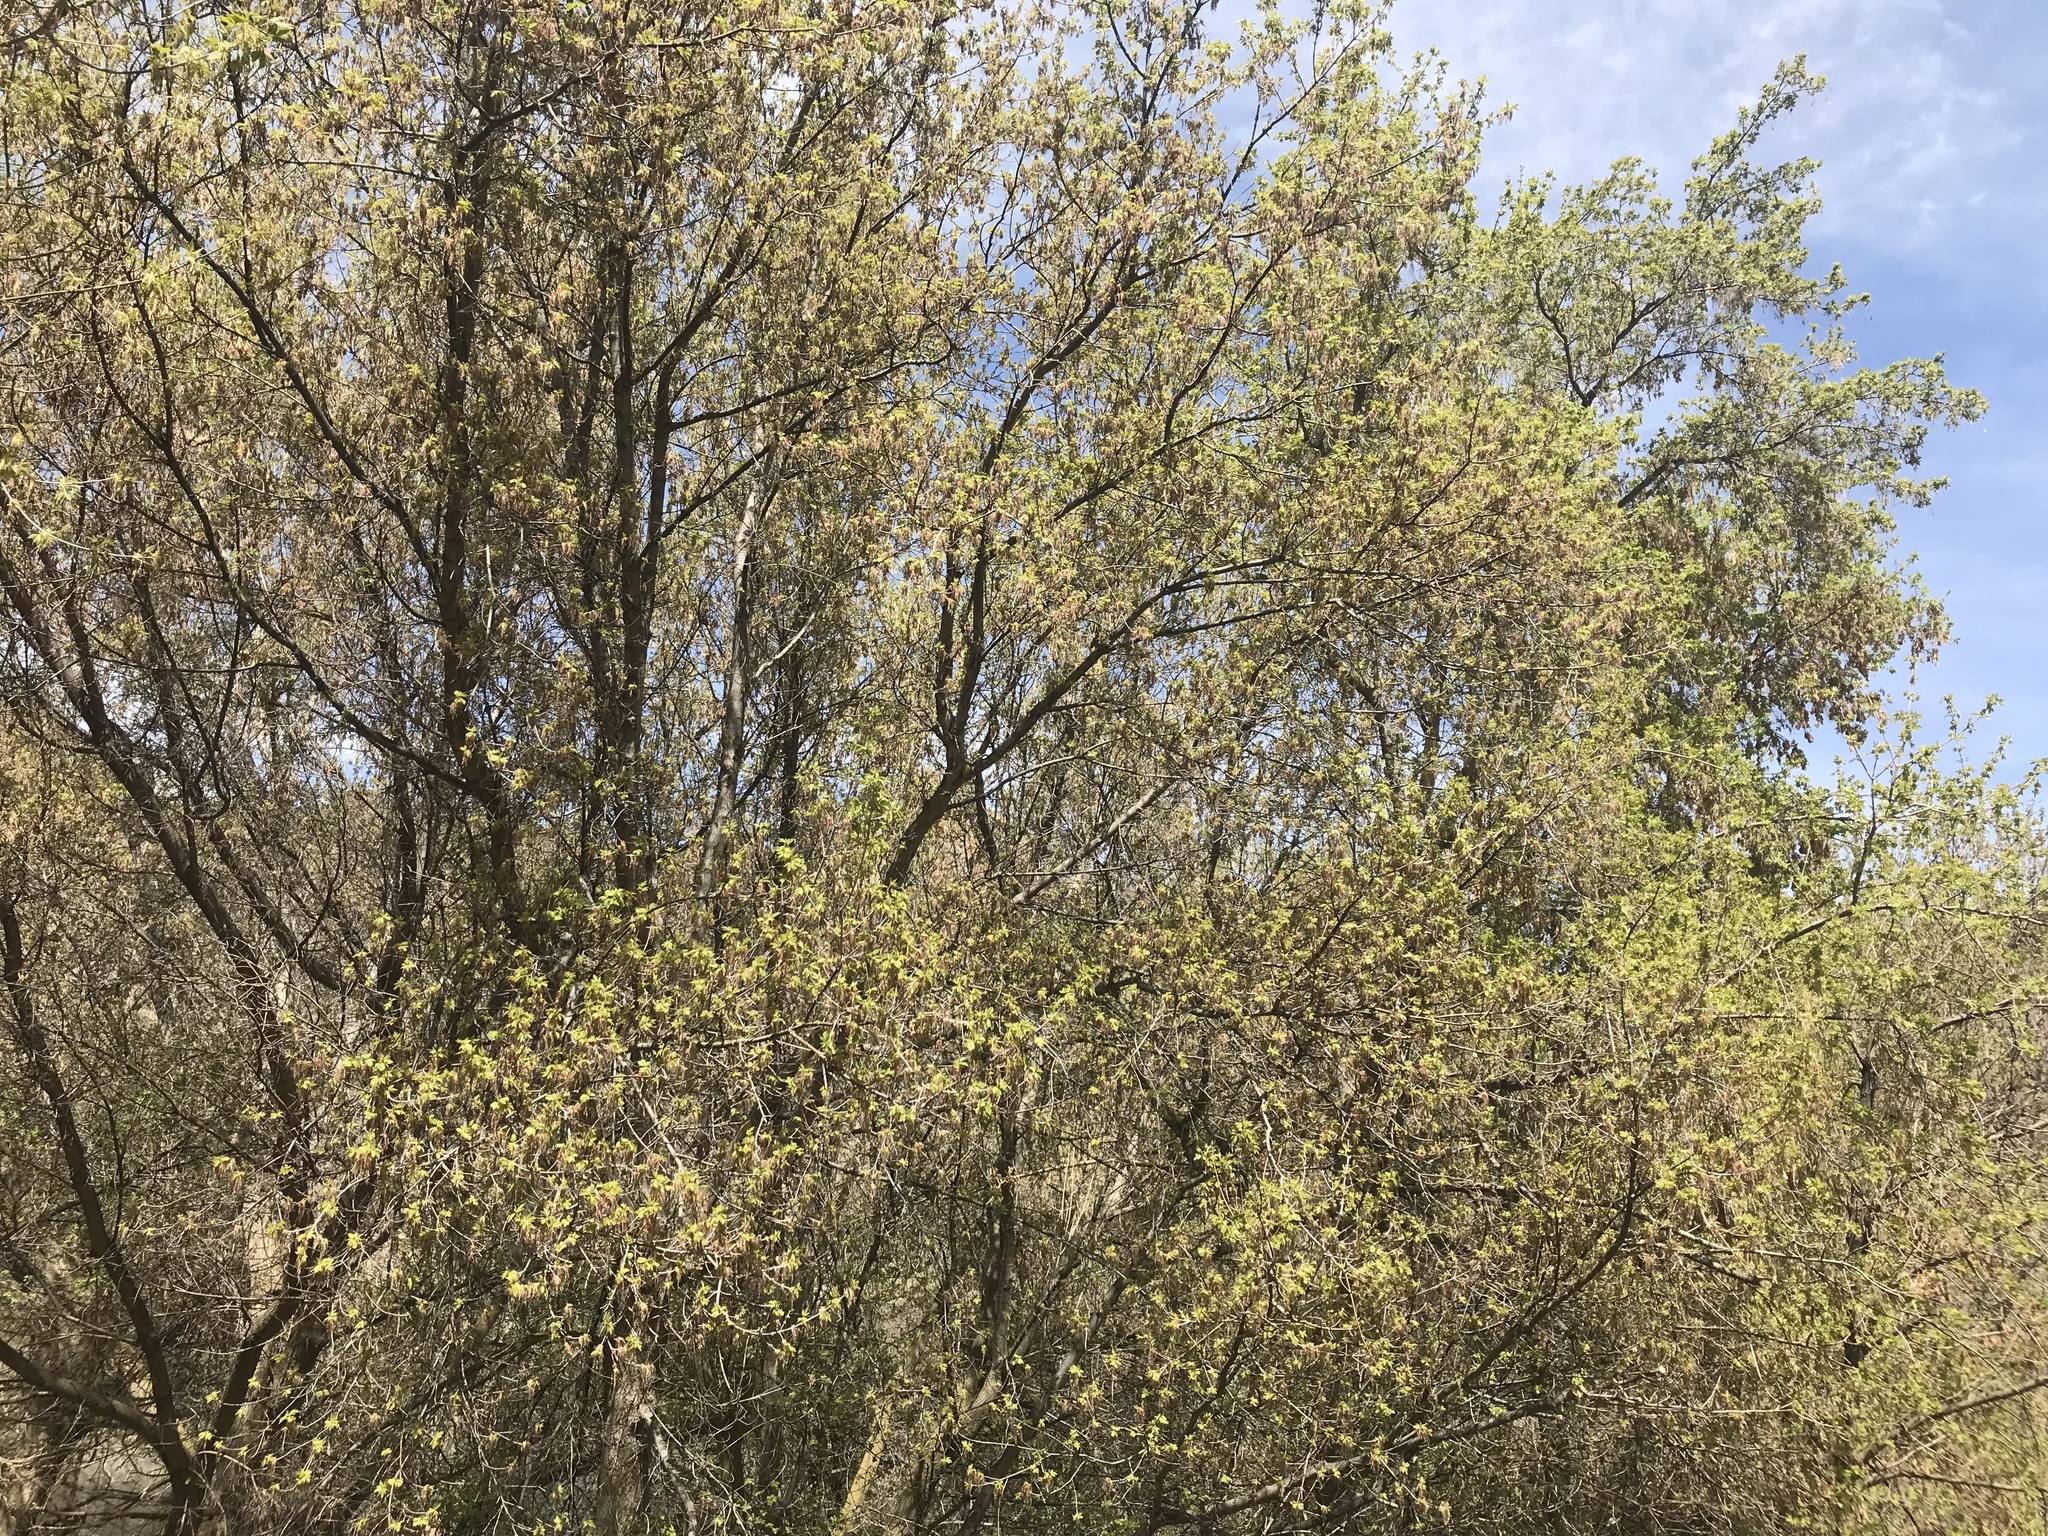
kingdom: Plantae
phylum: Tracheophyta
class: Magnoliopsida
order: Sapindales
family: Sapindaceae
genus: Acer
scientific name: Acer negundo
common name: Ashleaf maple
